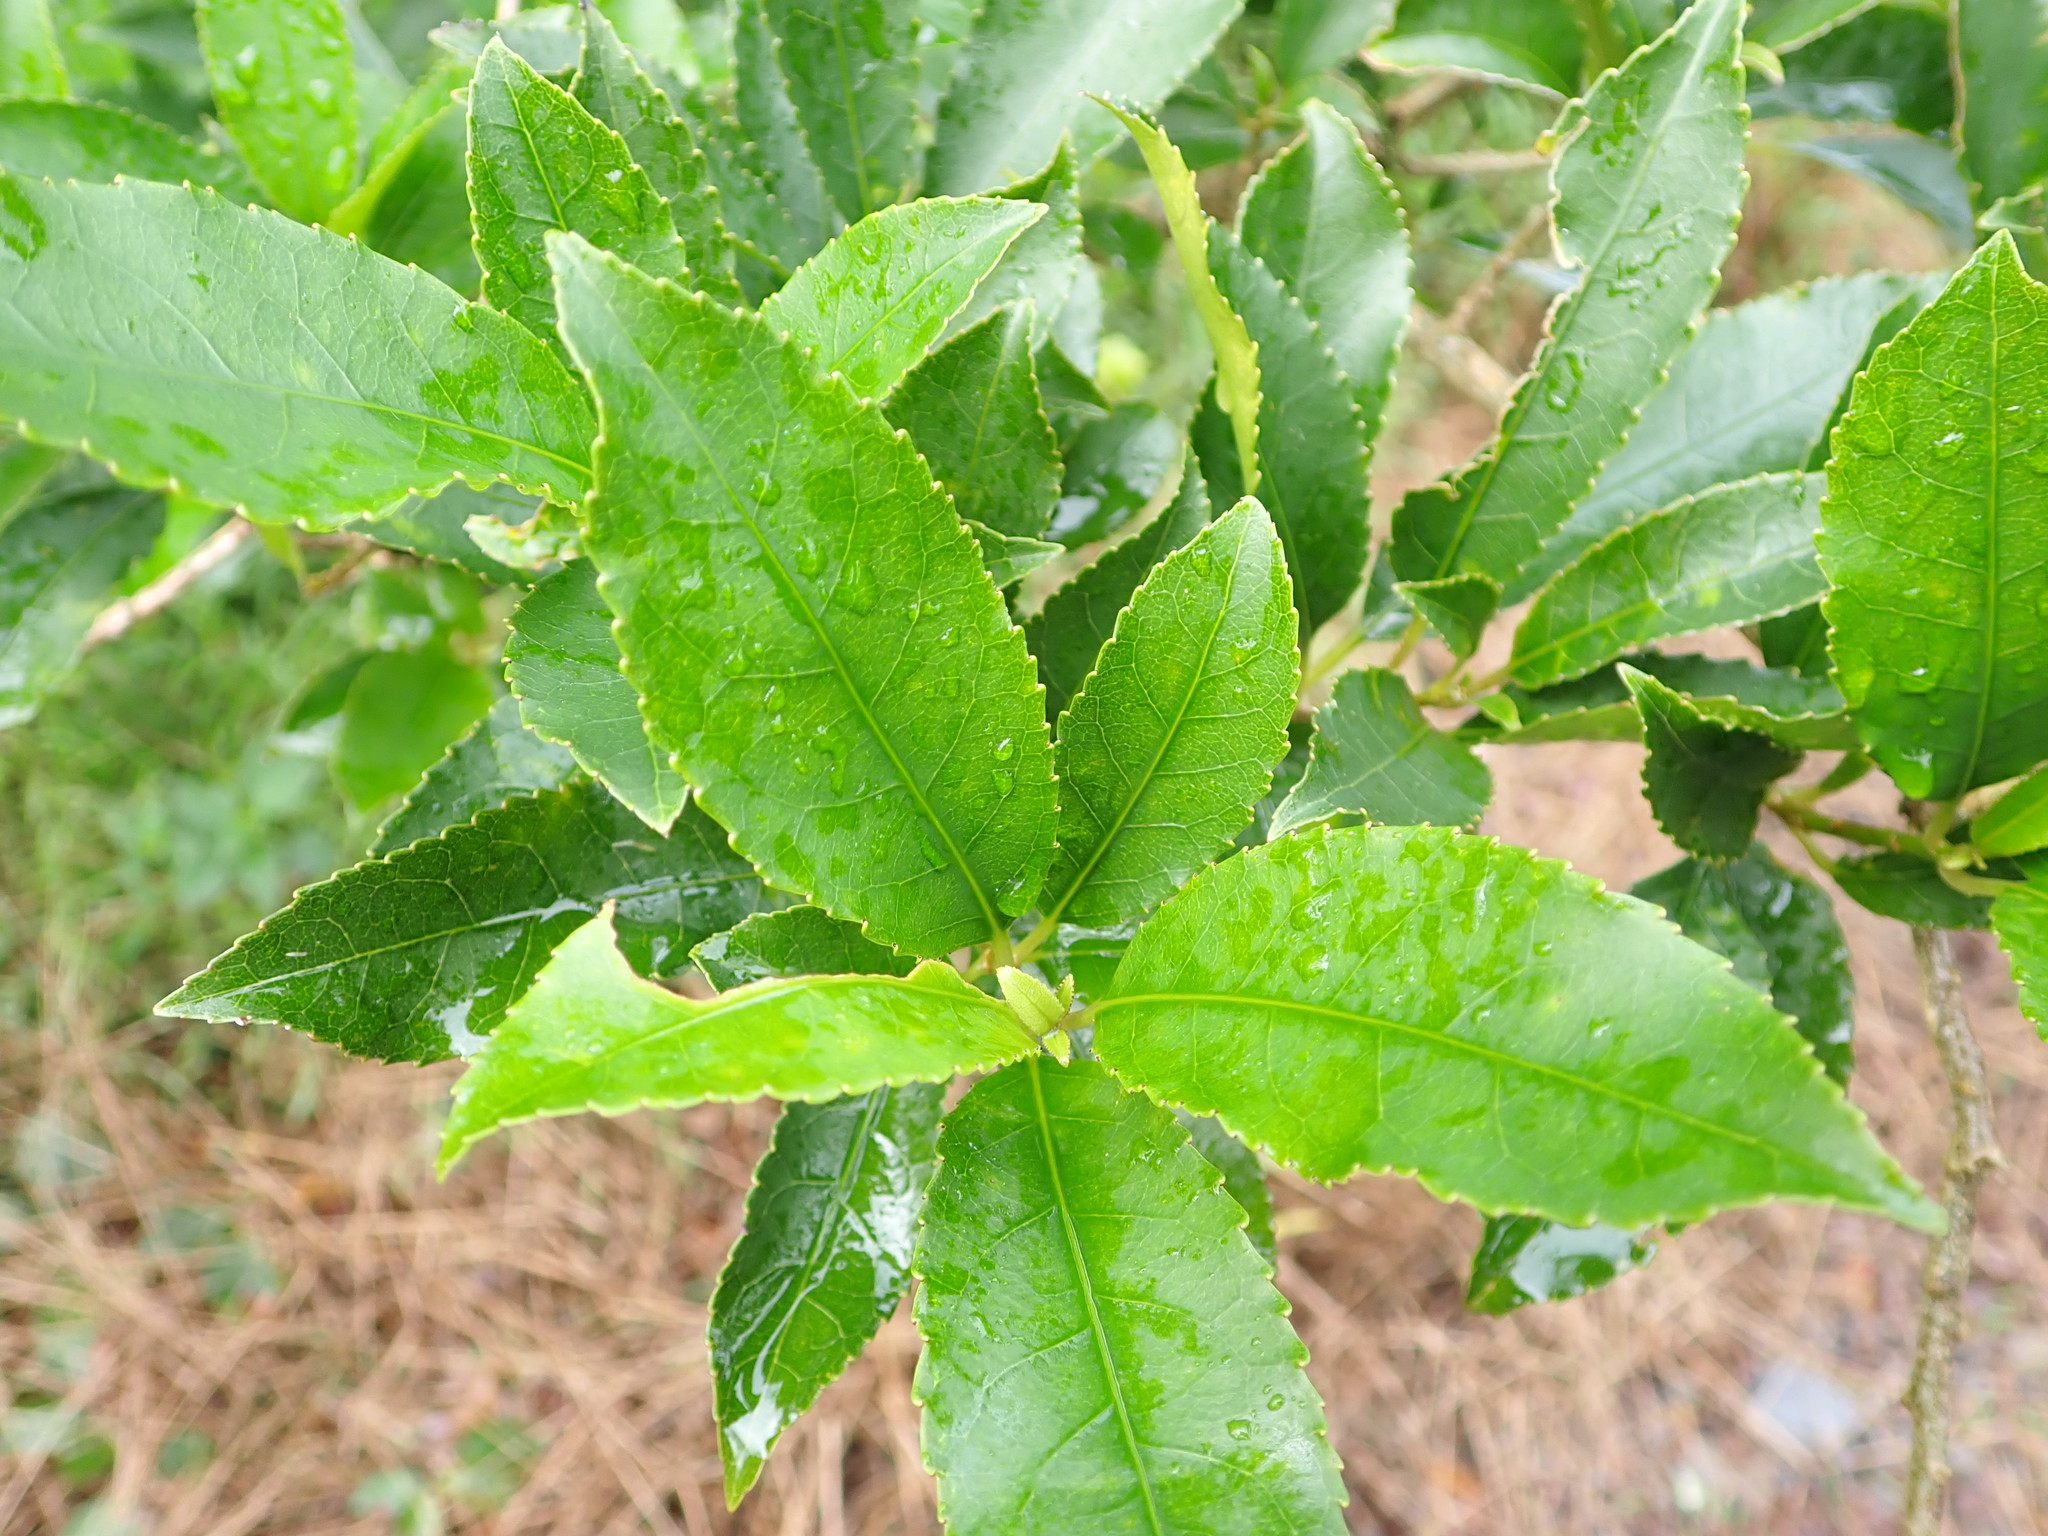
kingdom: Plantae
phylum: Tracheophyta
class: Magnoliopsida
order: Malpighiales
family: Violaceae
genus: Melicytus
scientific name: Melicytus ramiflorus
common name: Mahoe
